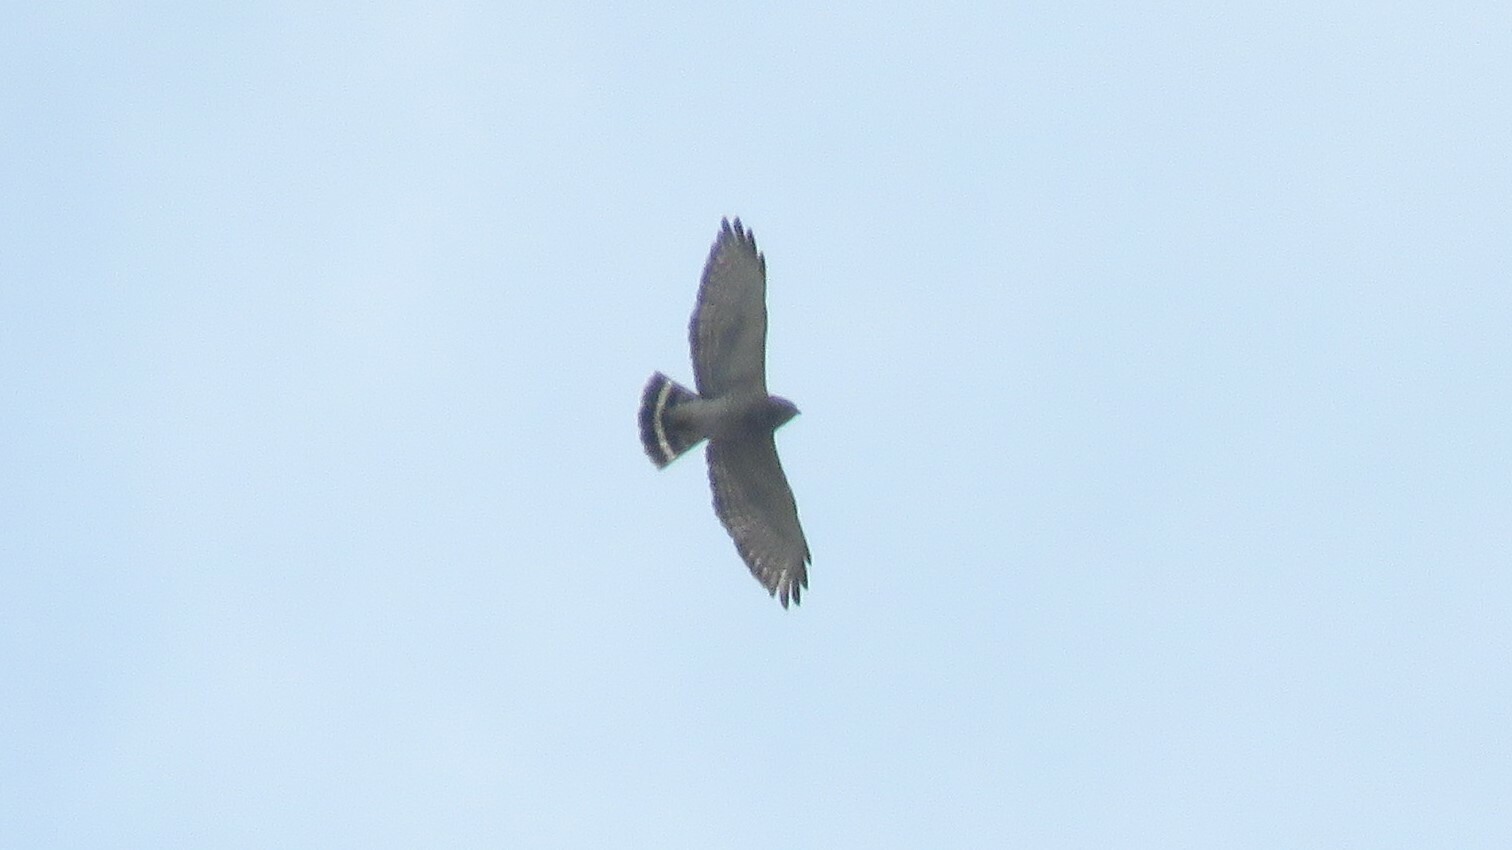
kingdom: Animalia
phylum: Chordata
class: Aves
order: Accipitriformes
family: Accipitridae
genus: Buteo
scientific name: Buteo platypterus
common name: Broad-winged hawk
